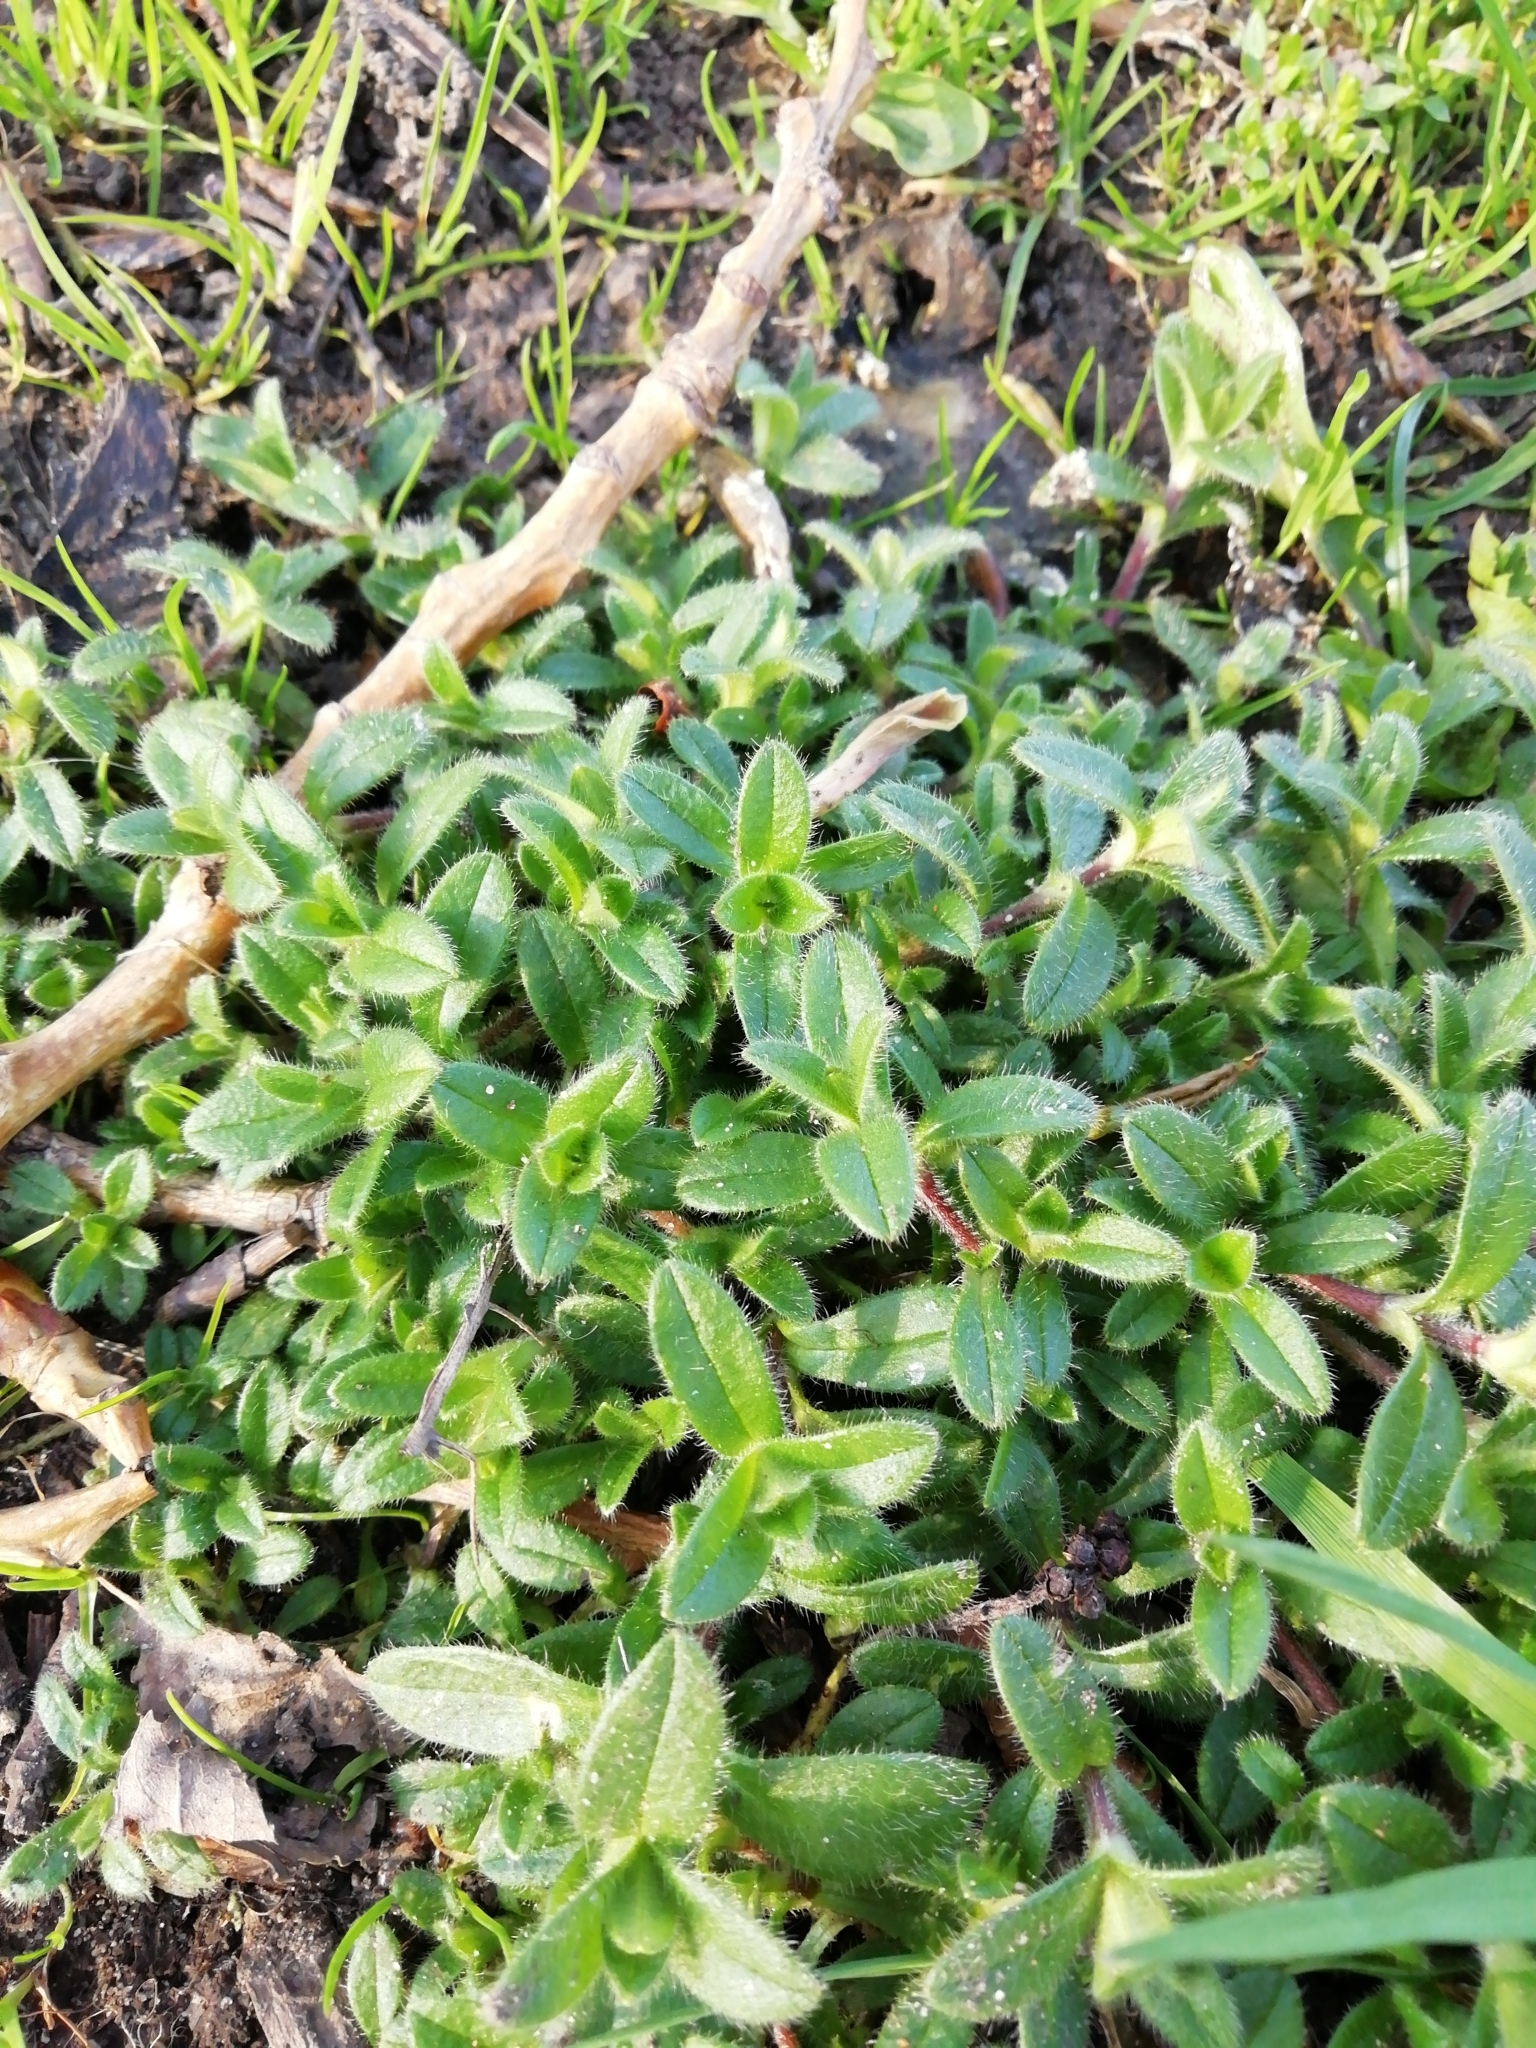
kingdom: Plantae
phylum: Tracheophyta
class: Magnoliopsida
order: Caryophyllales
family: Caryophyllaceae
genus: Cerastium
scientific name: Cerastium fontanum
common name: Common mouse-ear
